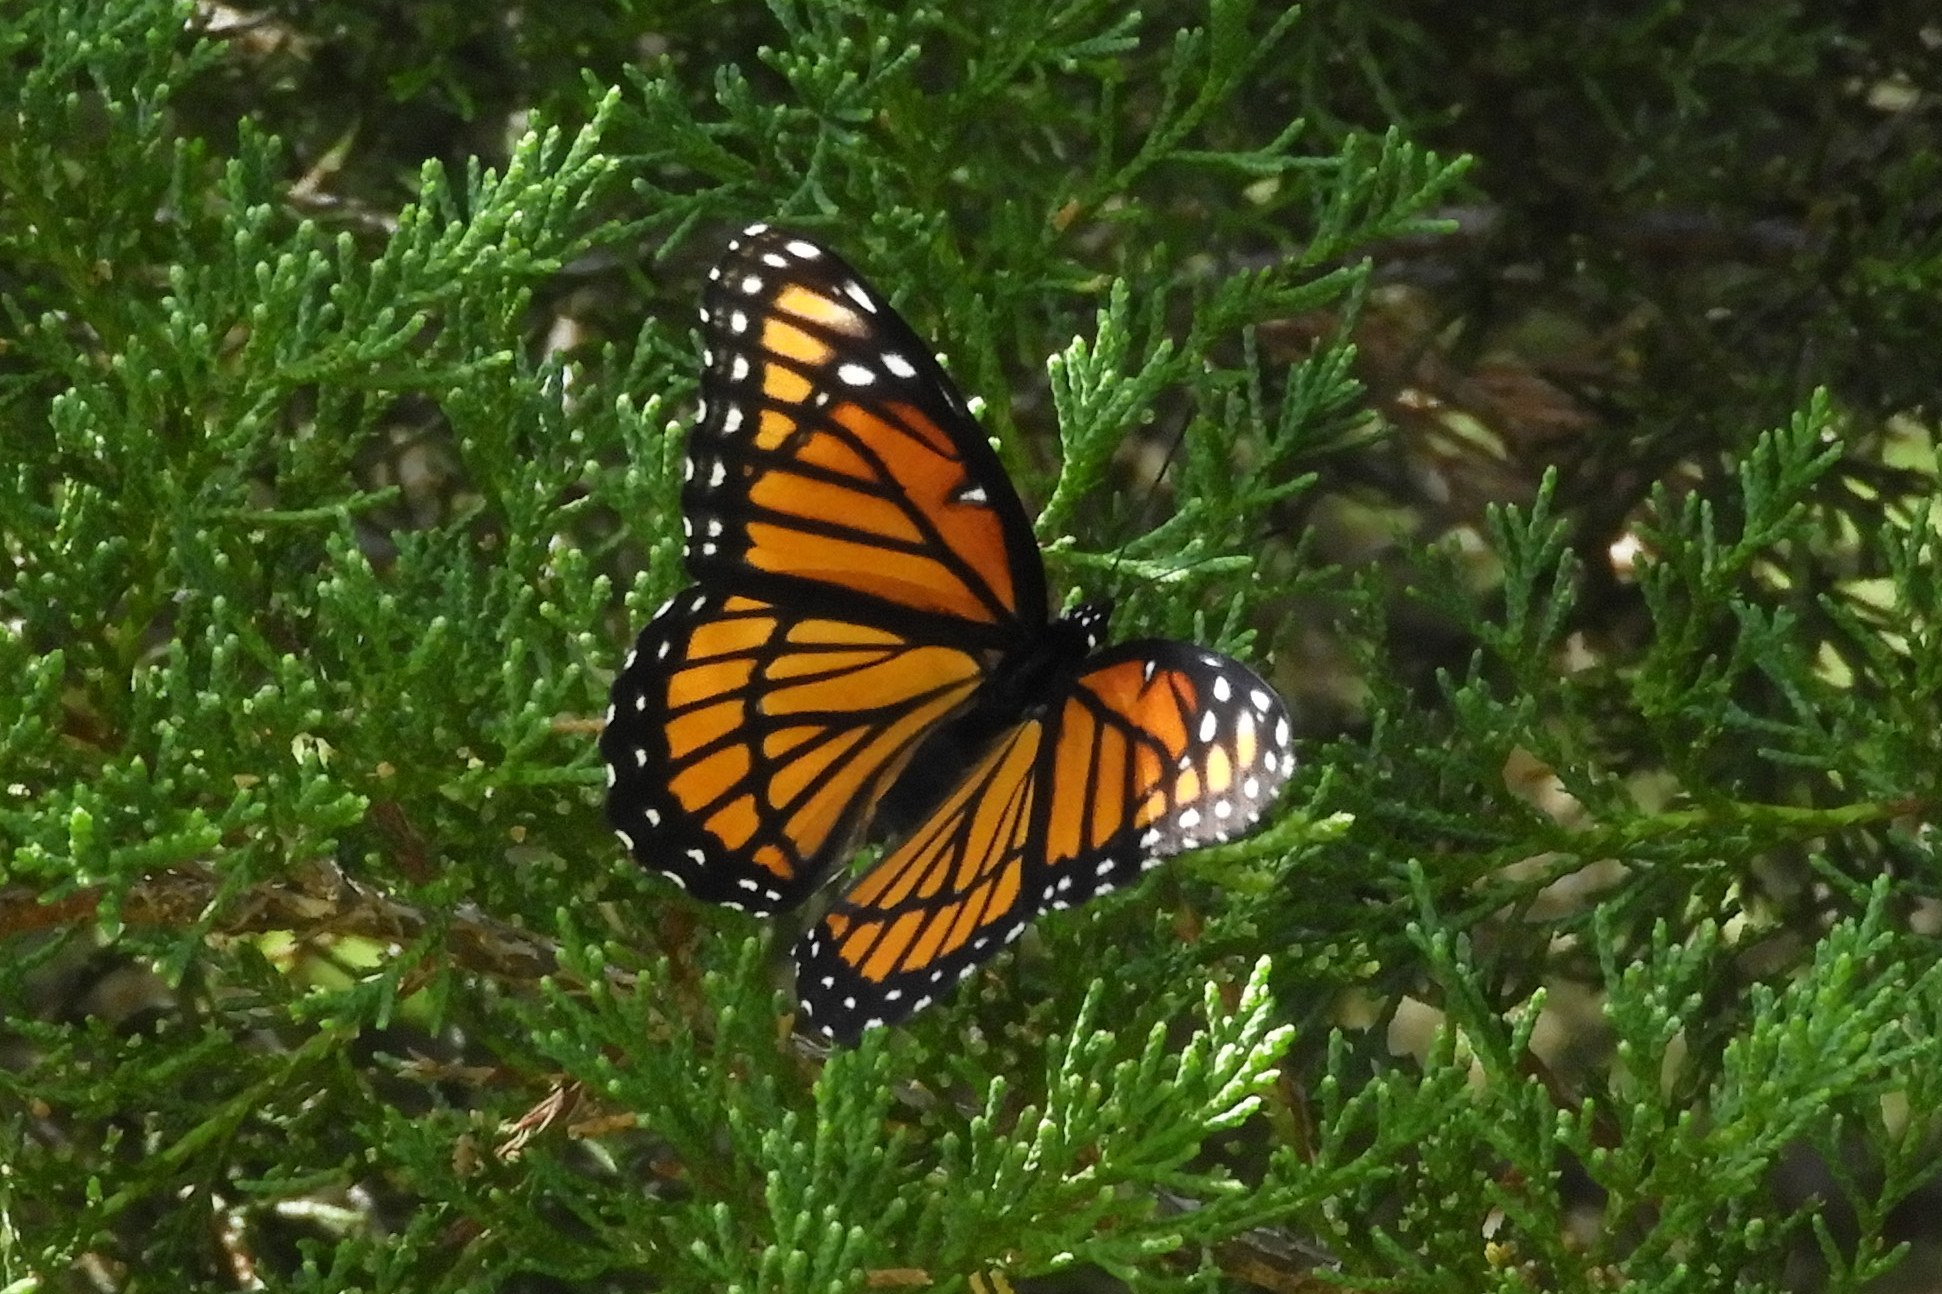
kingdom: Animalia
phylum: Arthropoda
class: Insecta
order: Lepidoptera
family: Nymphalidae
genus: Limenitis
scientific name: Limenitis archippus
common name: Viceroy
